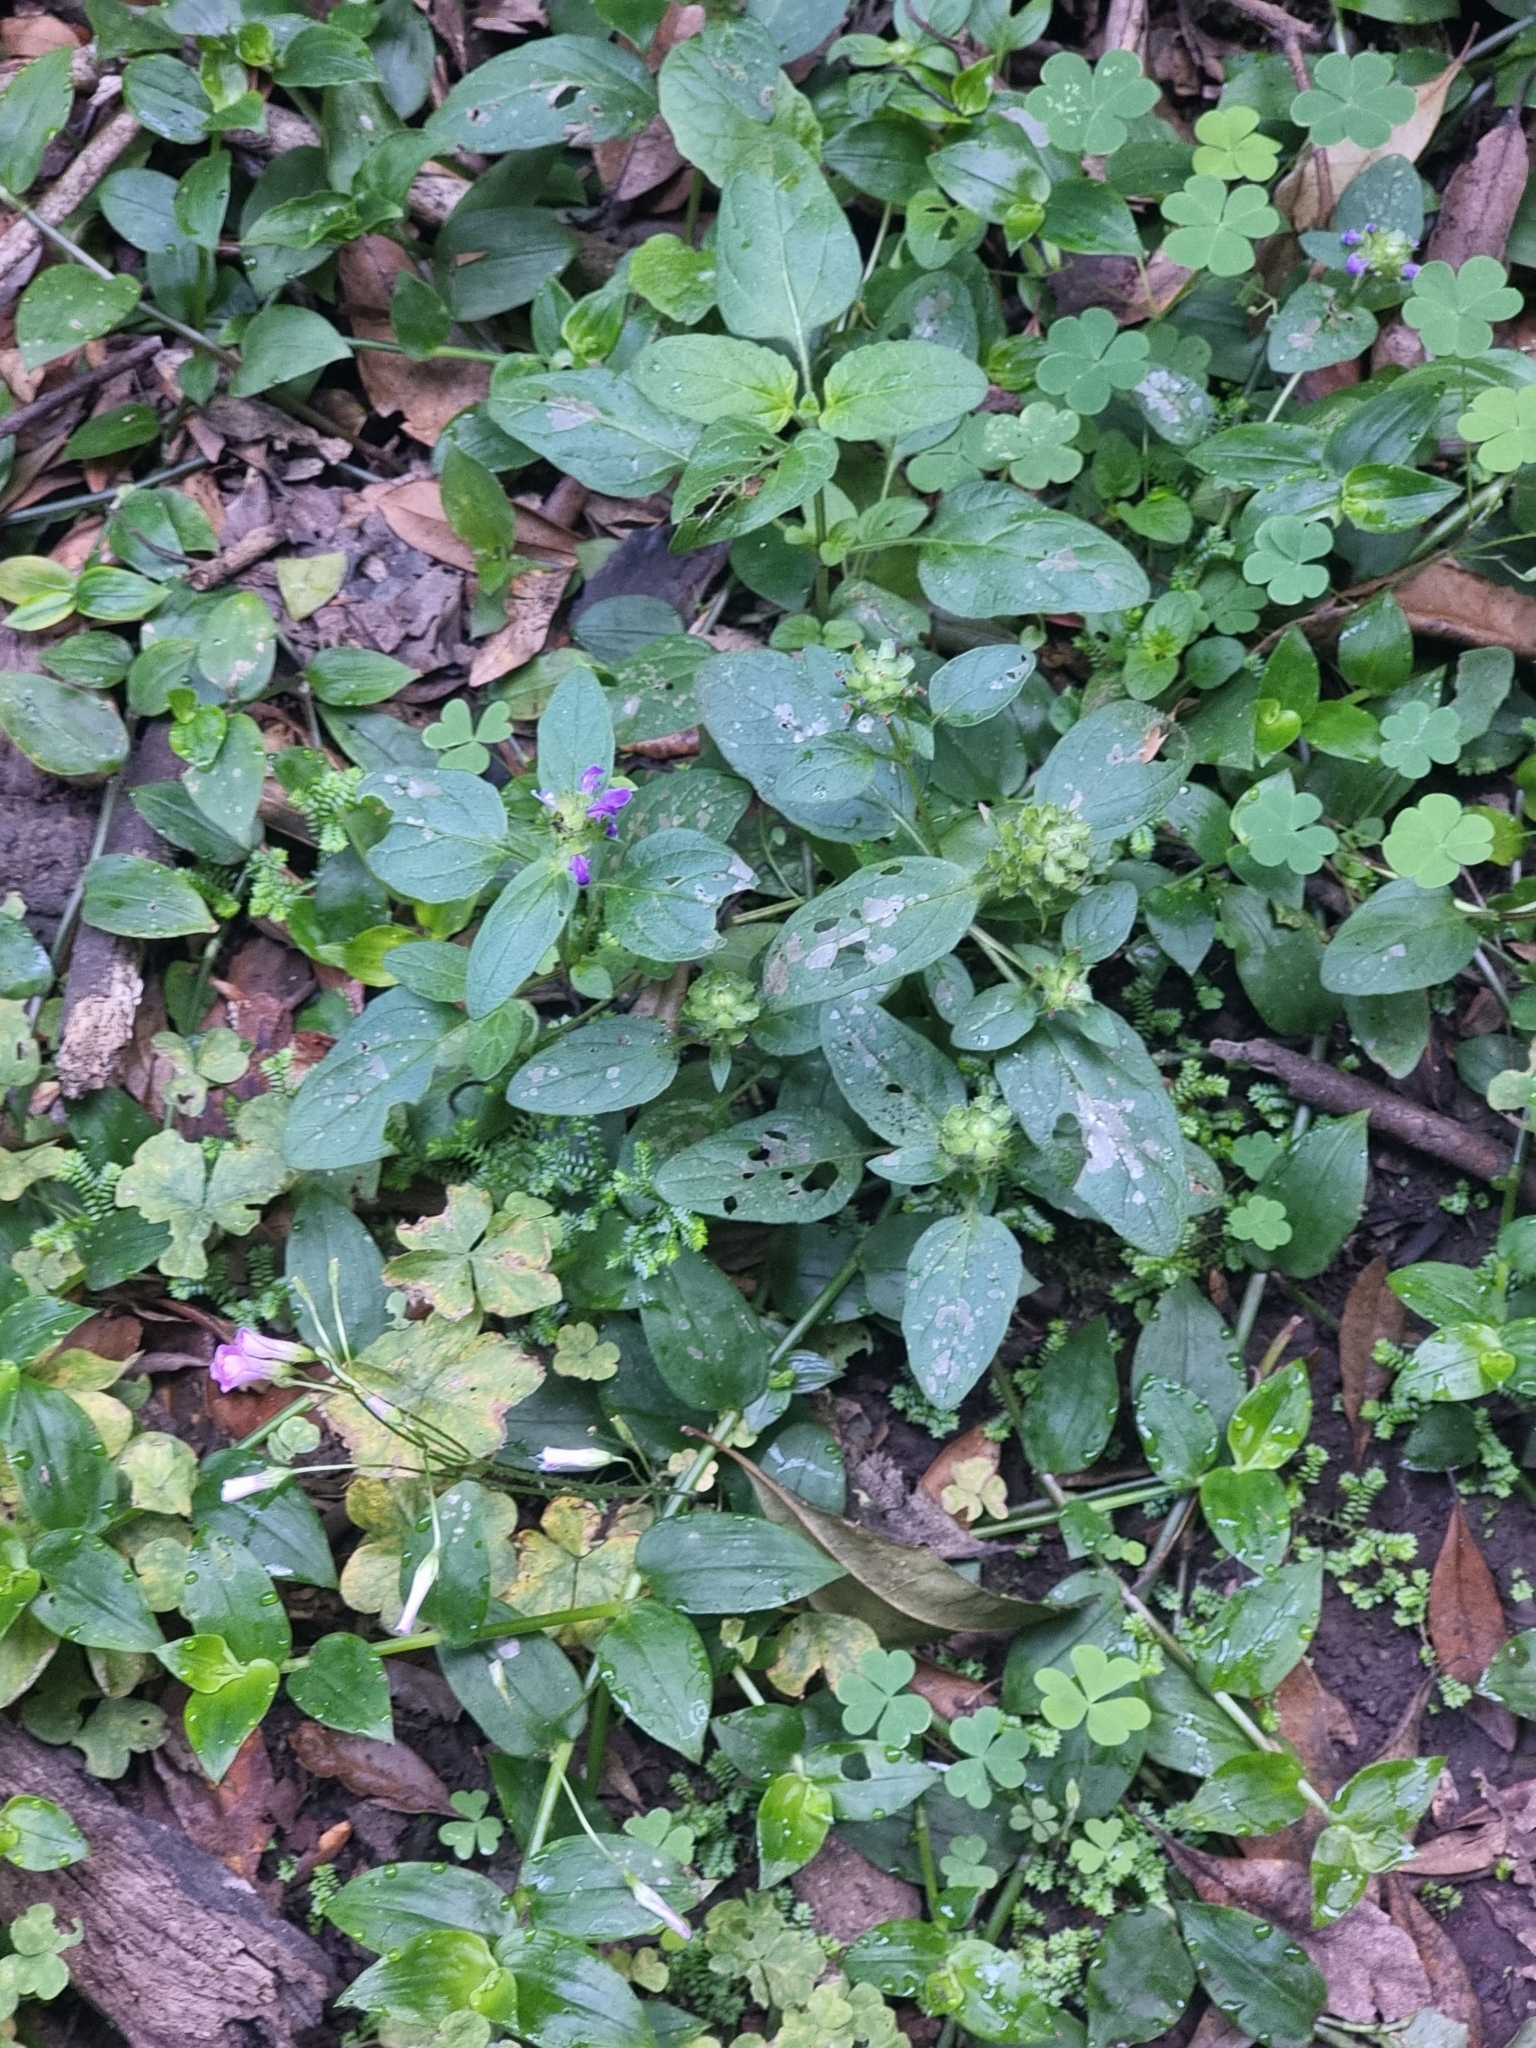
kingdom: Plantae
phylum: Tracheophyta
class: Magnoliopsida
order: Lamiales
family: Lamiaceae
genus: Prunella
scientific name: Prunella vulgaris
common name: Heal-all
